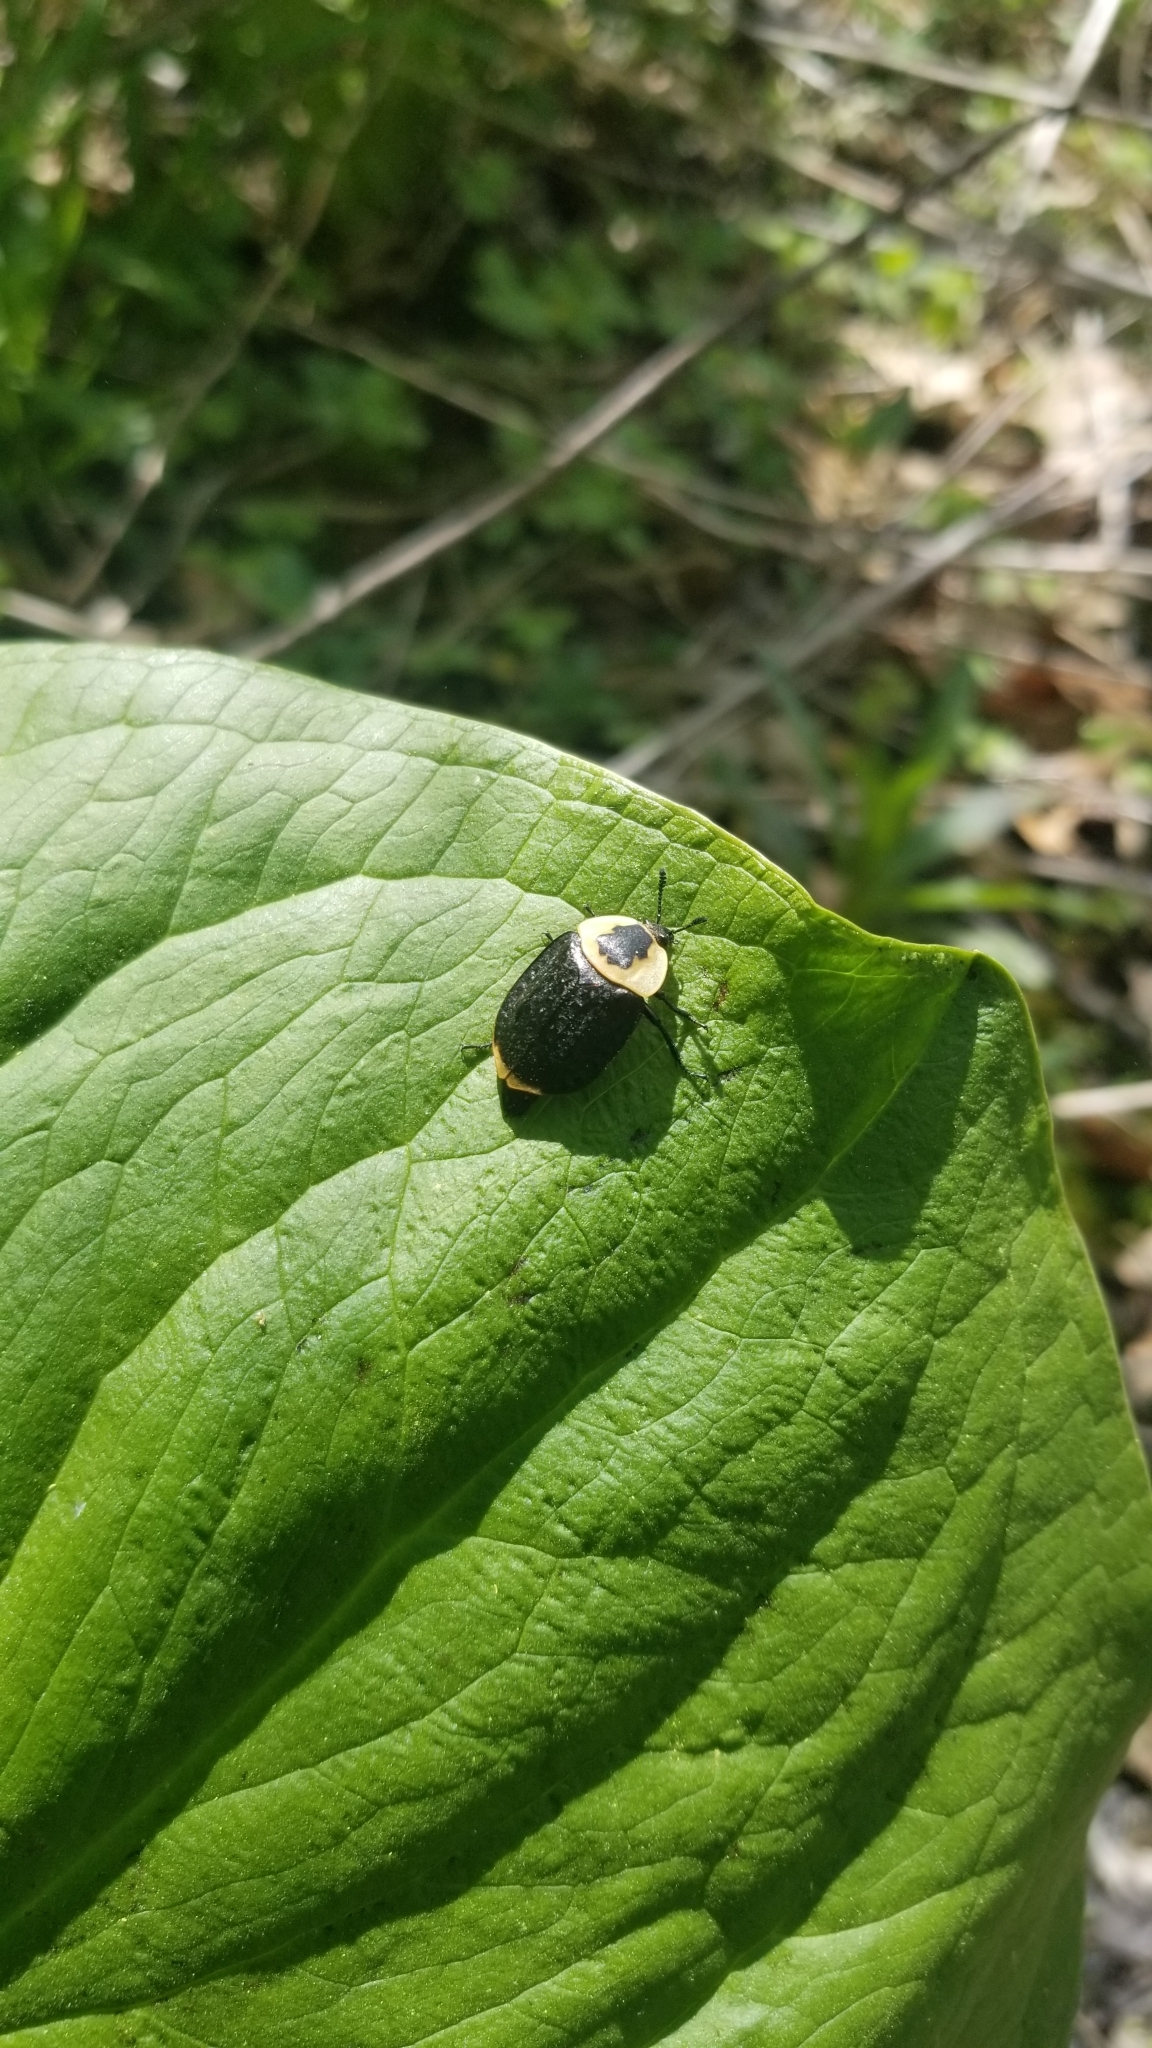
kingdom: Animalia
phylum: Arthropoda
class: Insecta
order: Coleoptera
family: Staphylinidae
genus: Necrophila
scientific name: Necrophila americana
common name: American carrion beetle
